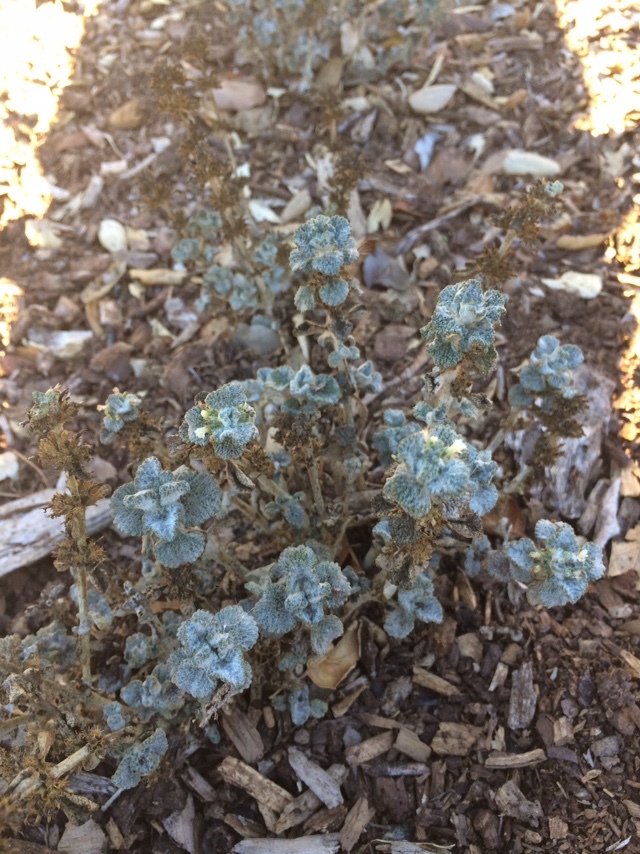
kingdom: Plantae
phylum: Tracheophyta
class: Magnoliopsida
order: Lamiales
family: Lamiaceae
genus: Marrubium
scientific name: Marrubium vulgare
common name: Horehound
